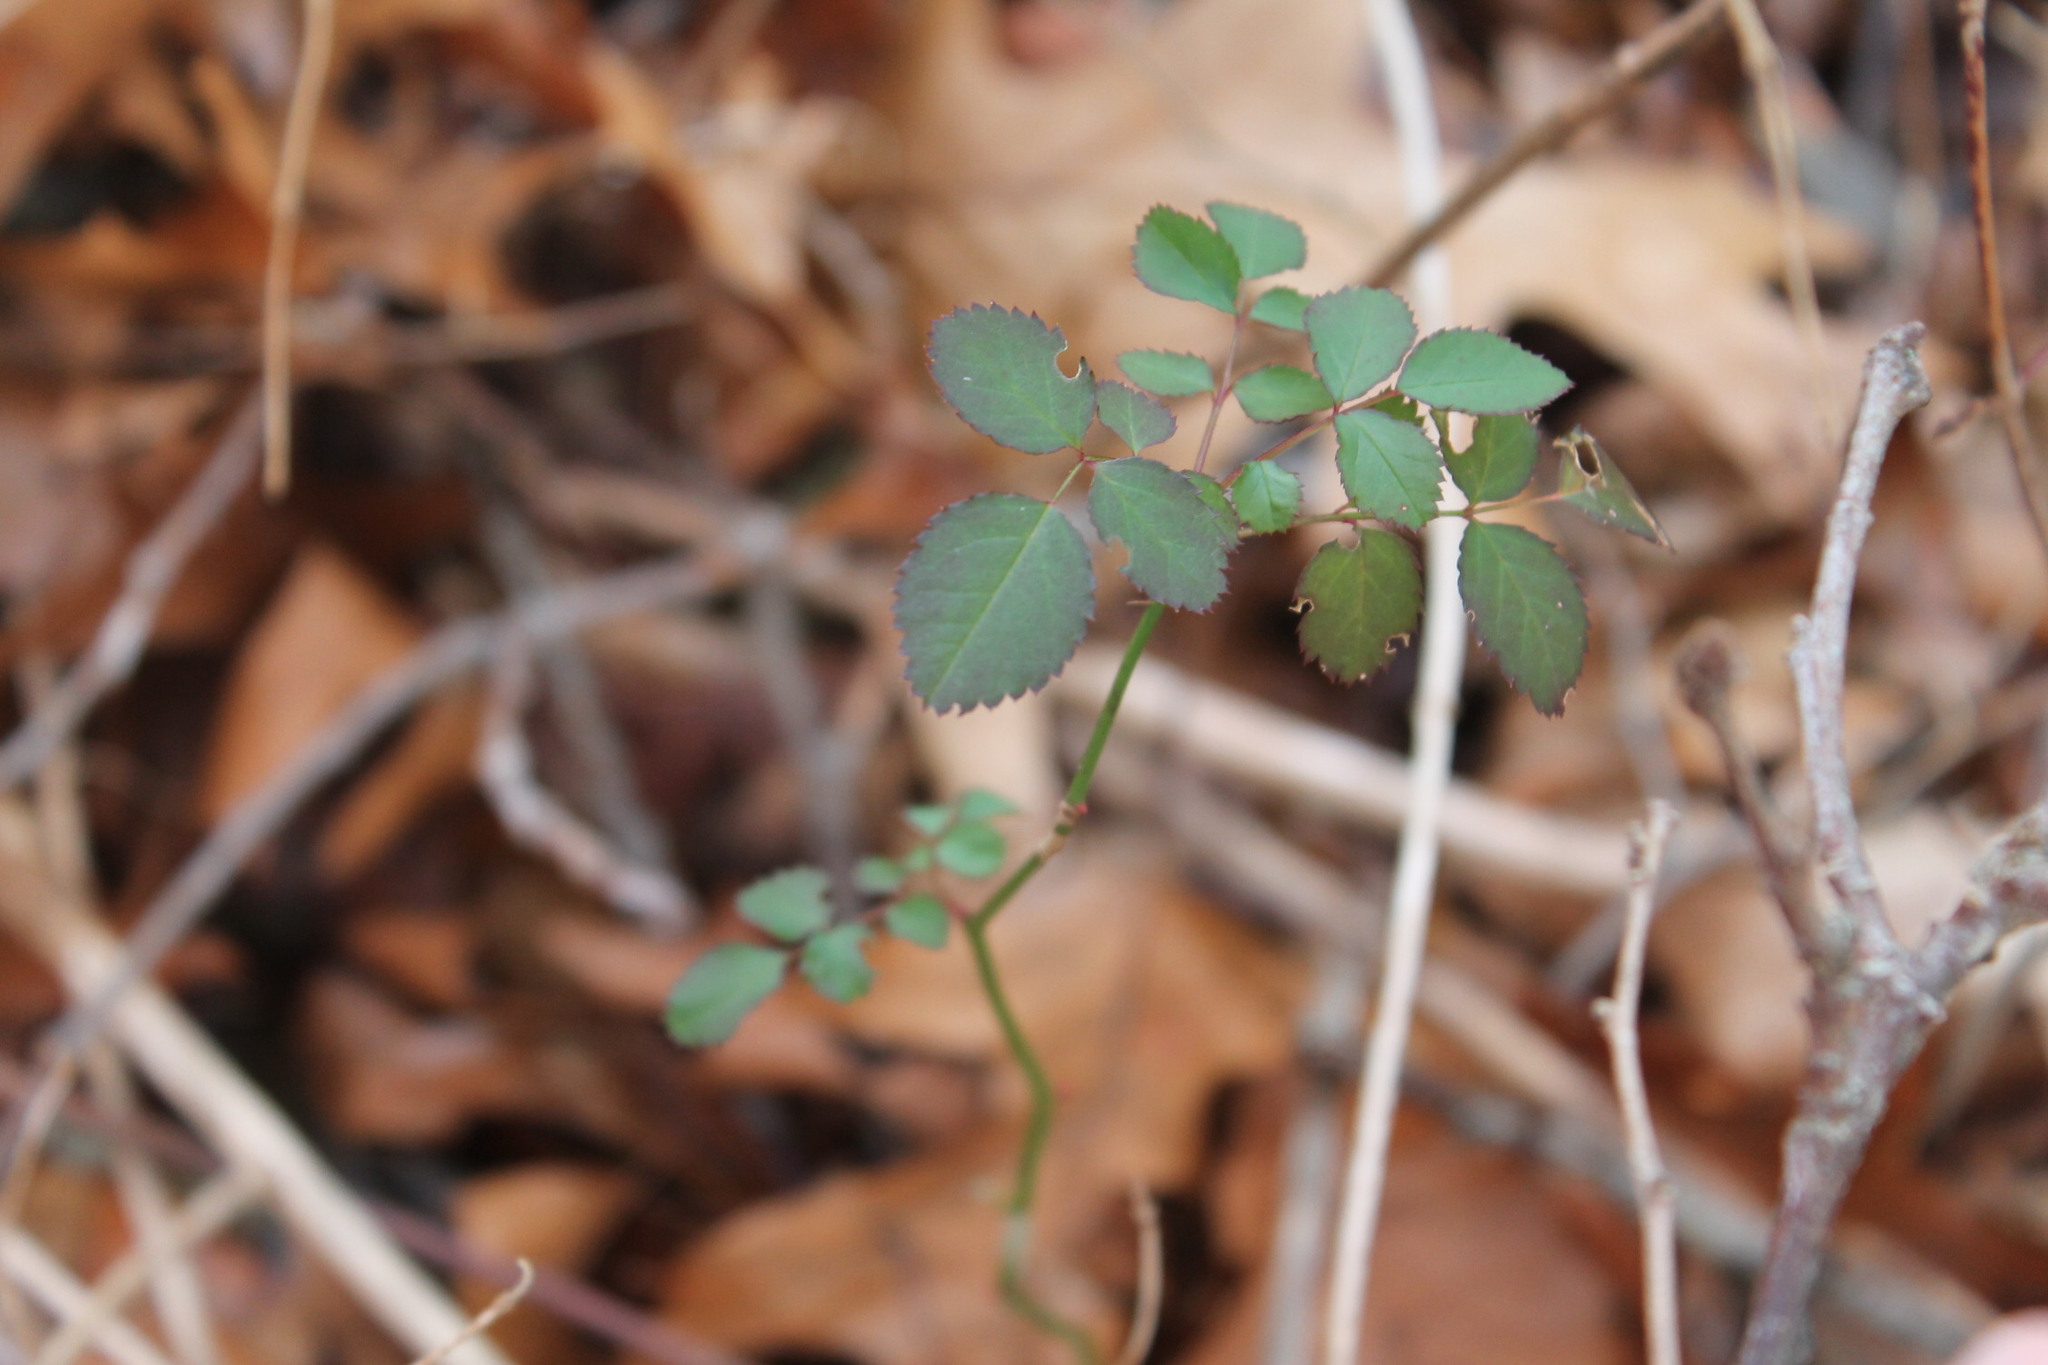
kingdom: Plantae
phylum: Tracheophyta
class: Magnoliopsida
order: Rosales
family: Rosaceae
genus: Rosa
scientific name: Rosa multiflora
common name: Multiflora rose
